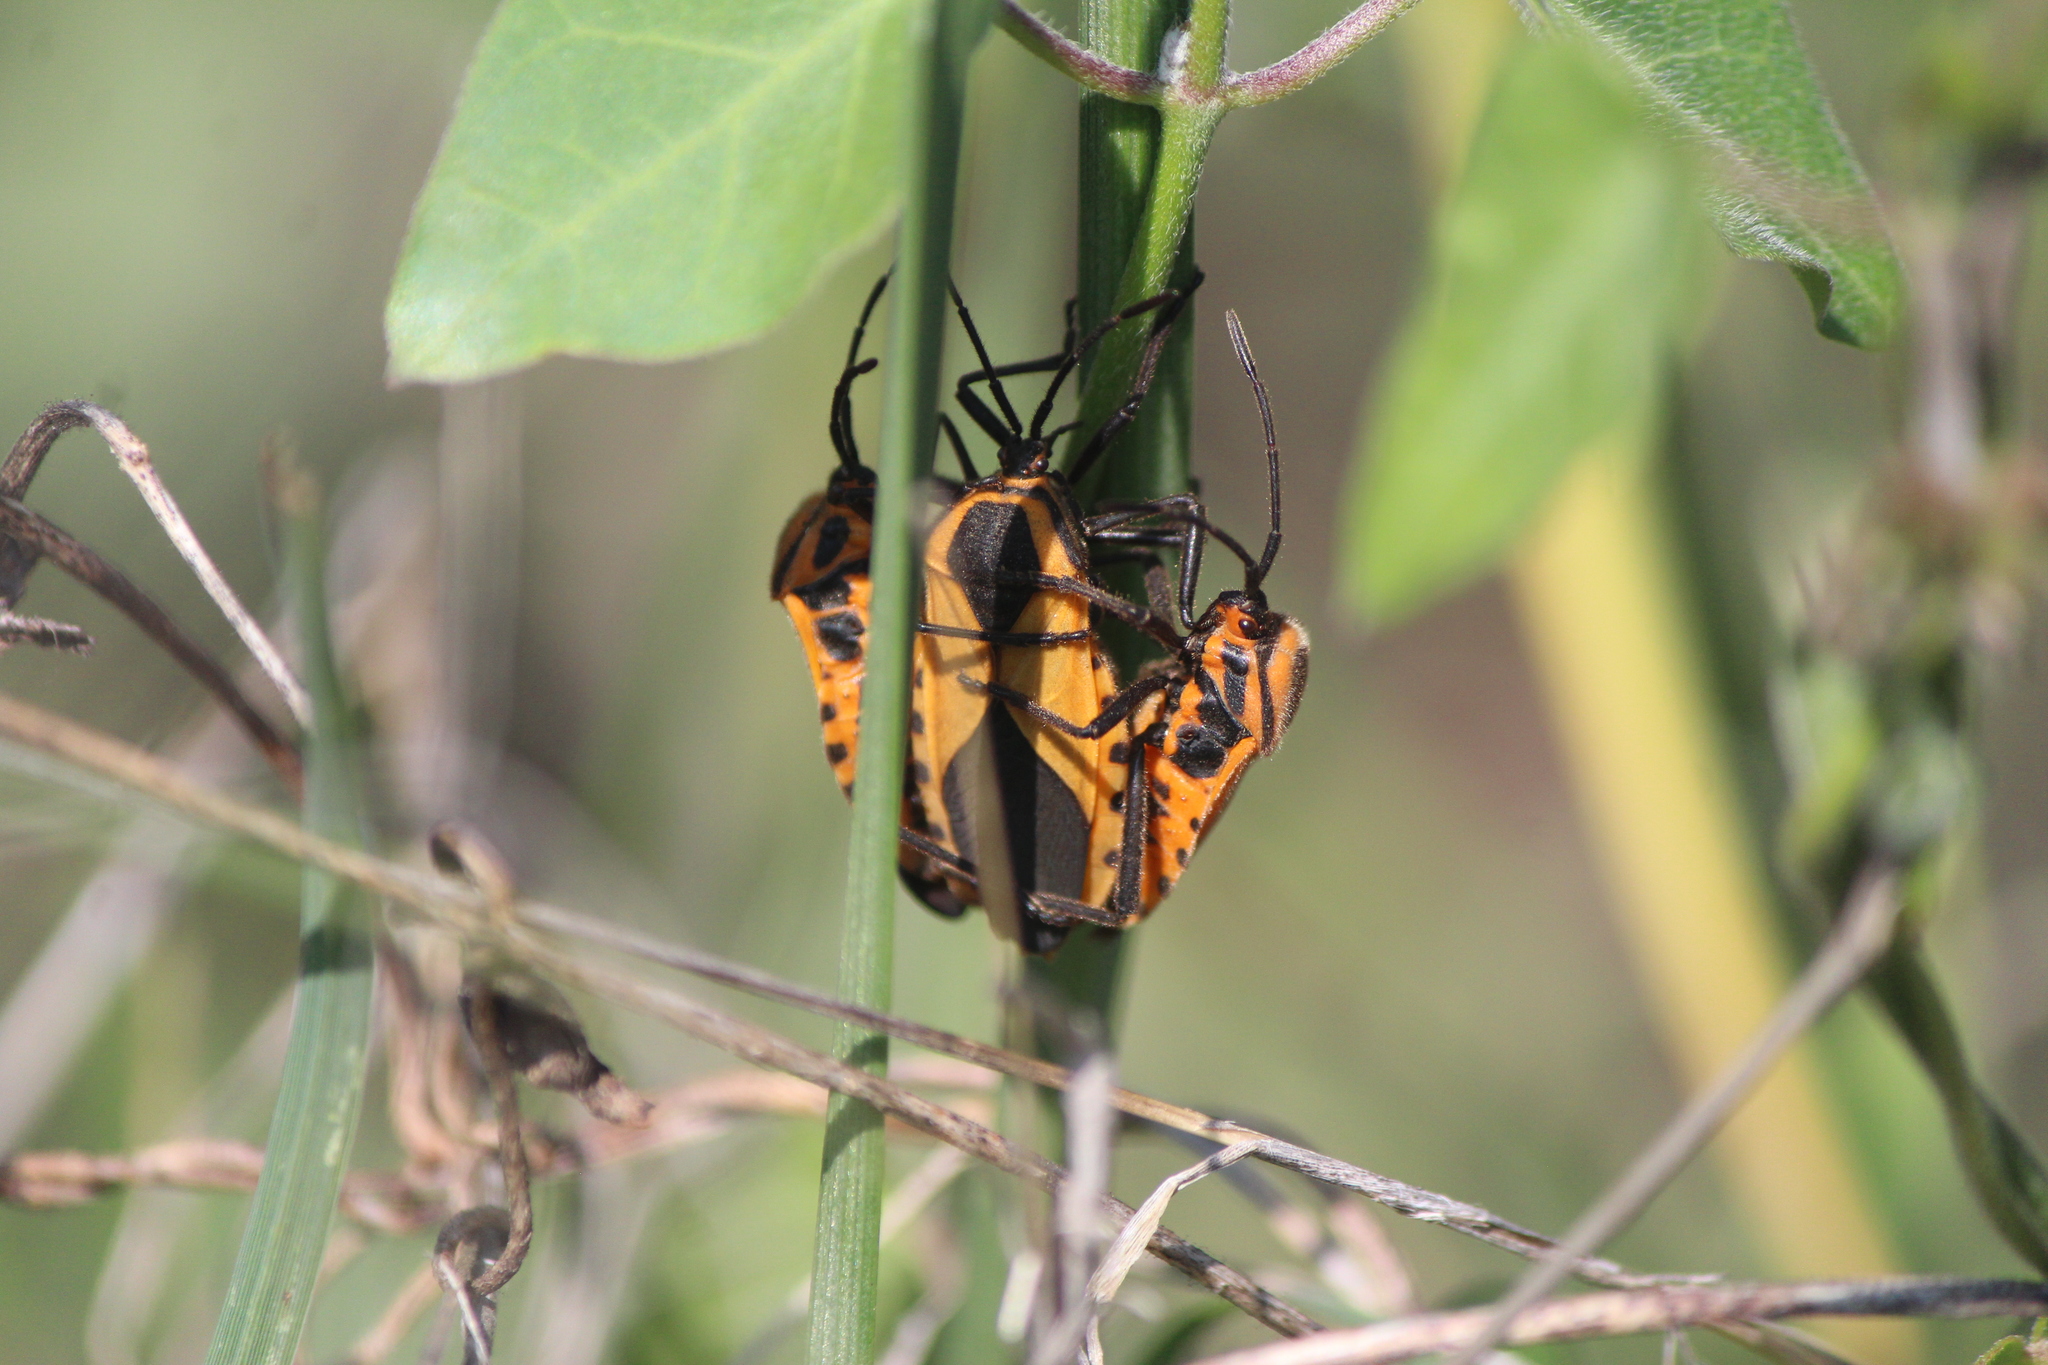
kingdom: Animalia
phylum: Arthropoda
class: Insecta
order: Hemiptera
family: Coreidae
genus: Sephina
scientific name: Sephina dorsalis
